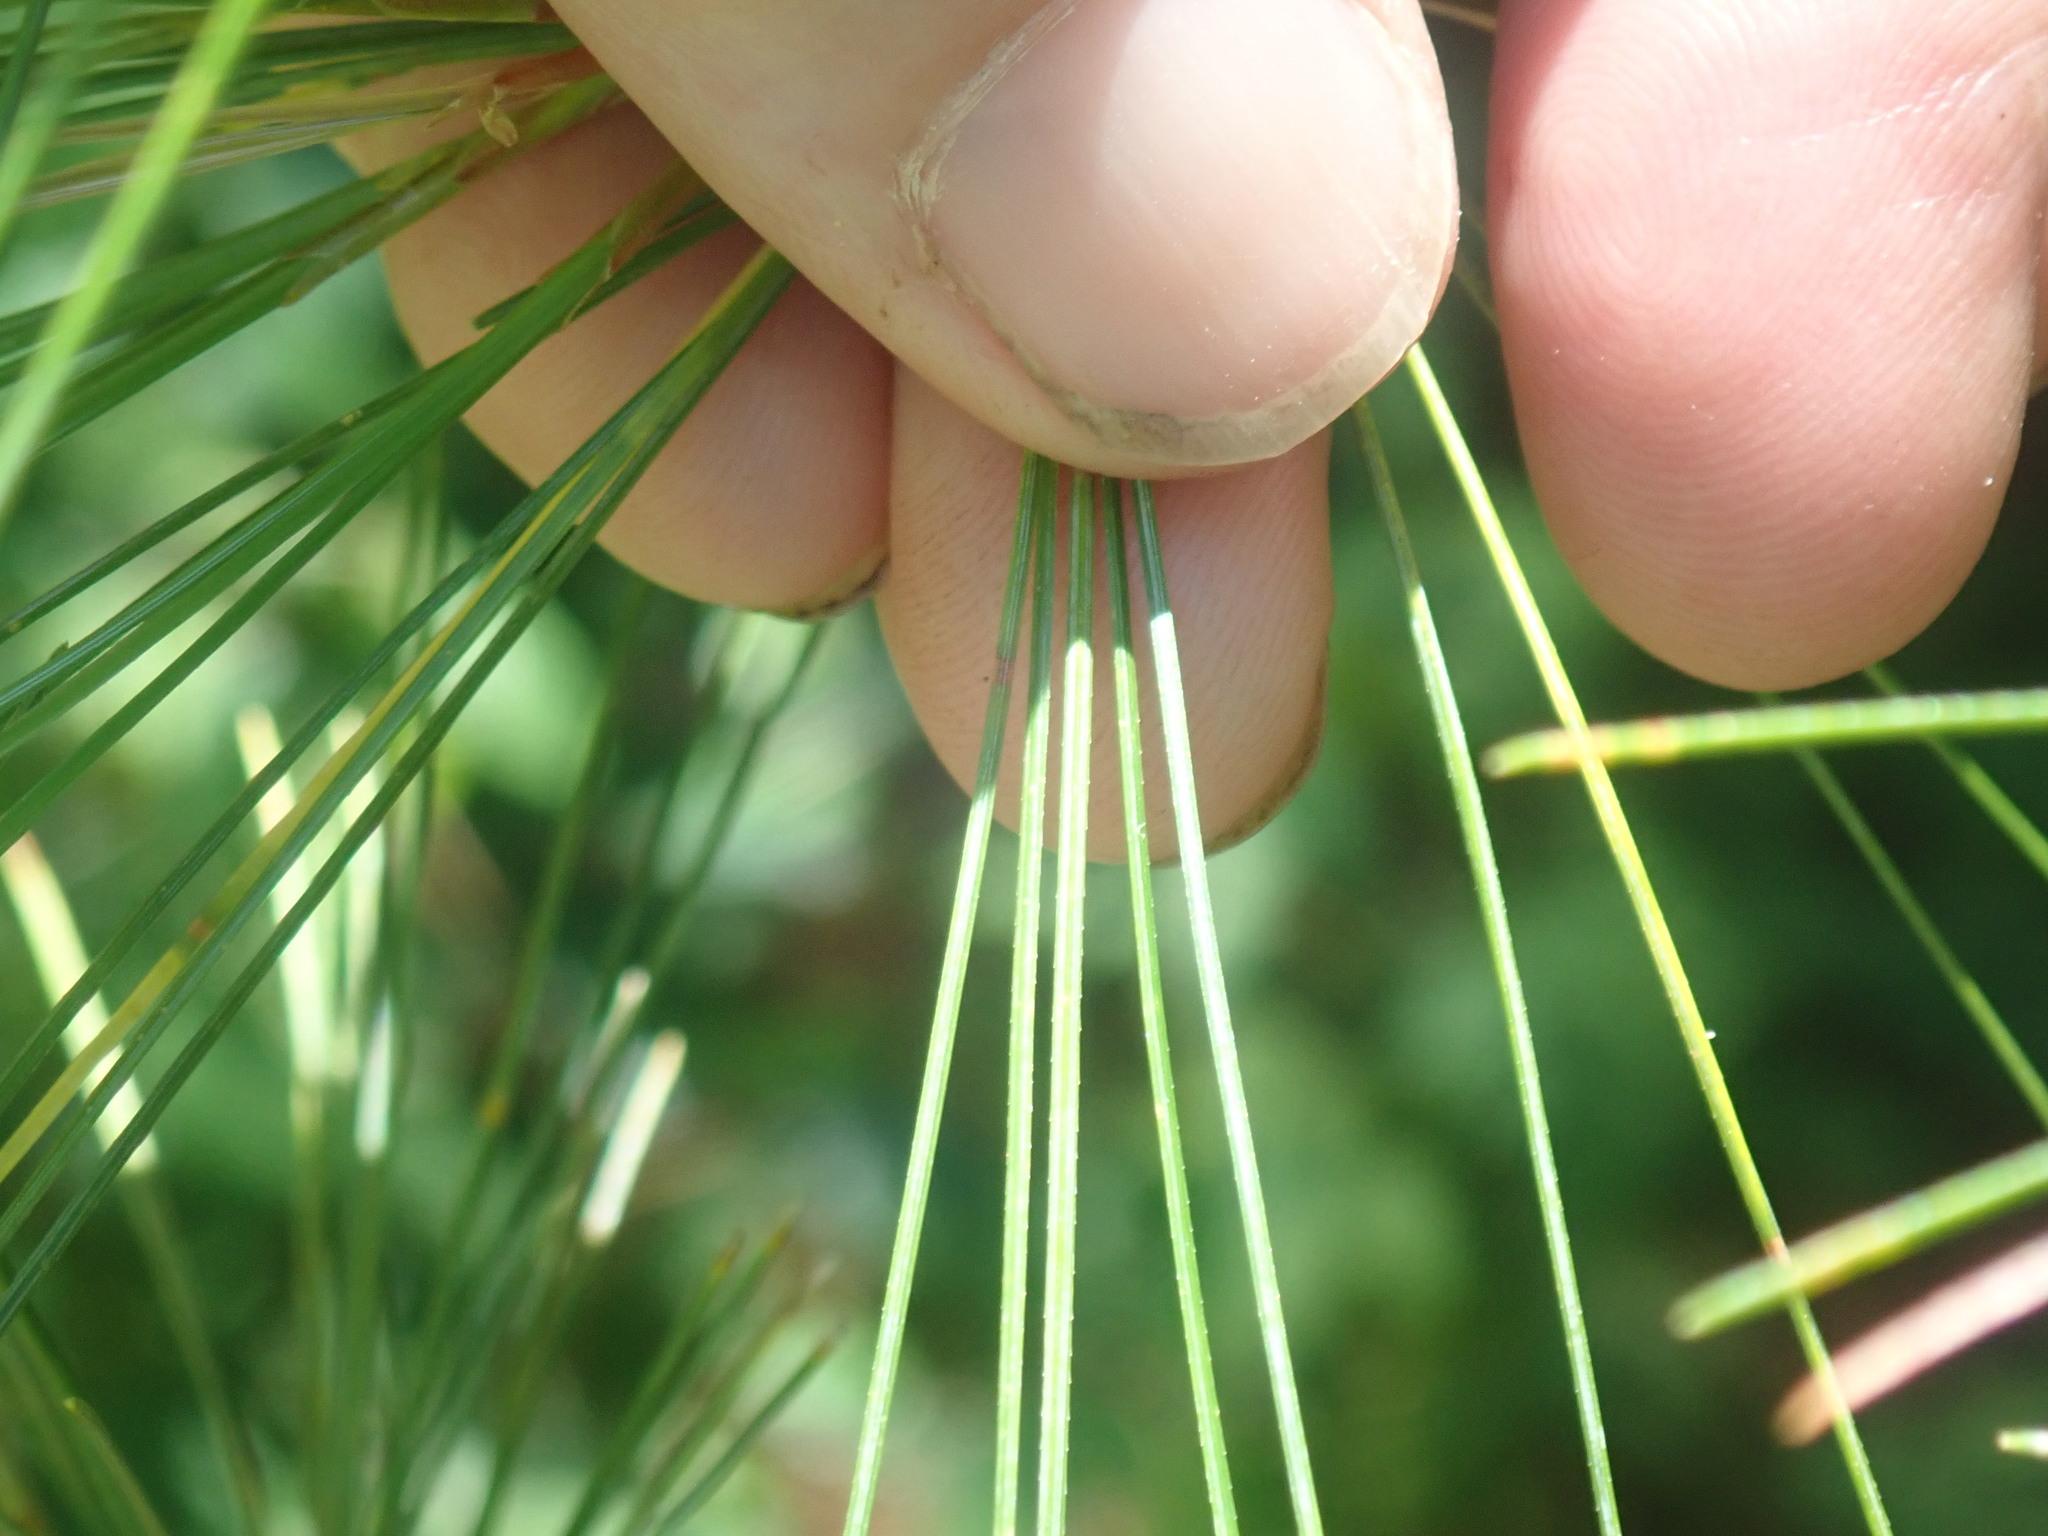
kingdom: Plantae
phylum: Tracheophyta
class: Pinopsida
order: Pinales
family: Pinaceae
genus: Pinus
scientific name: Pinus strobus
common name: Weymouth pine
